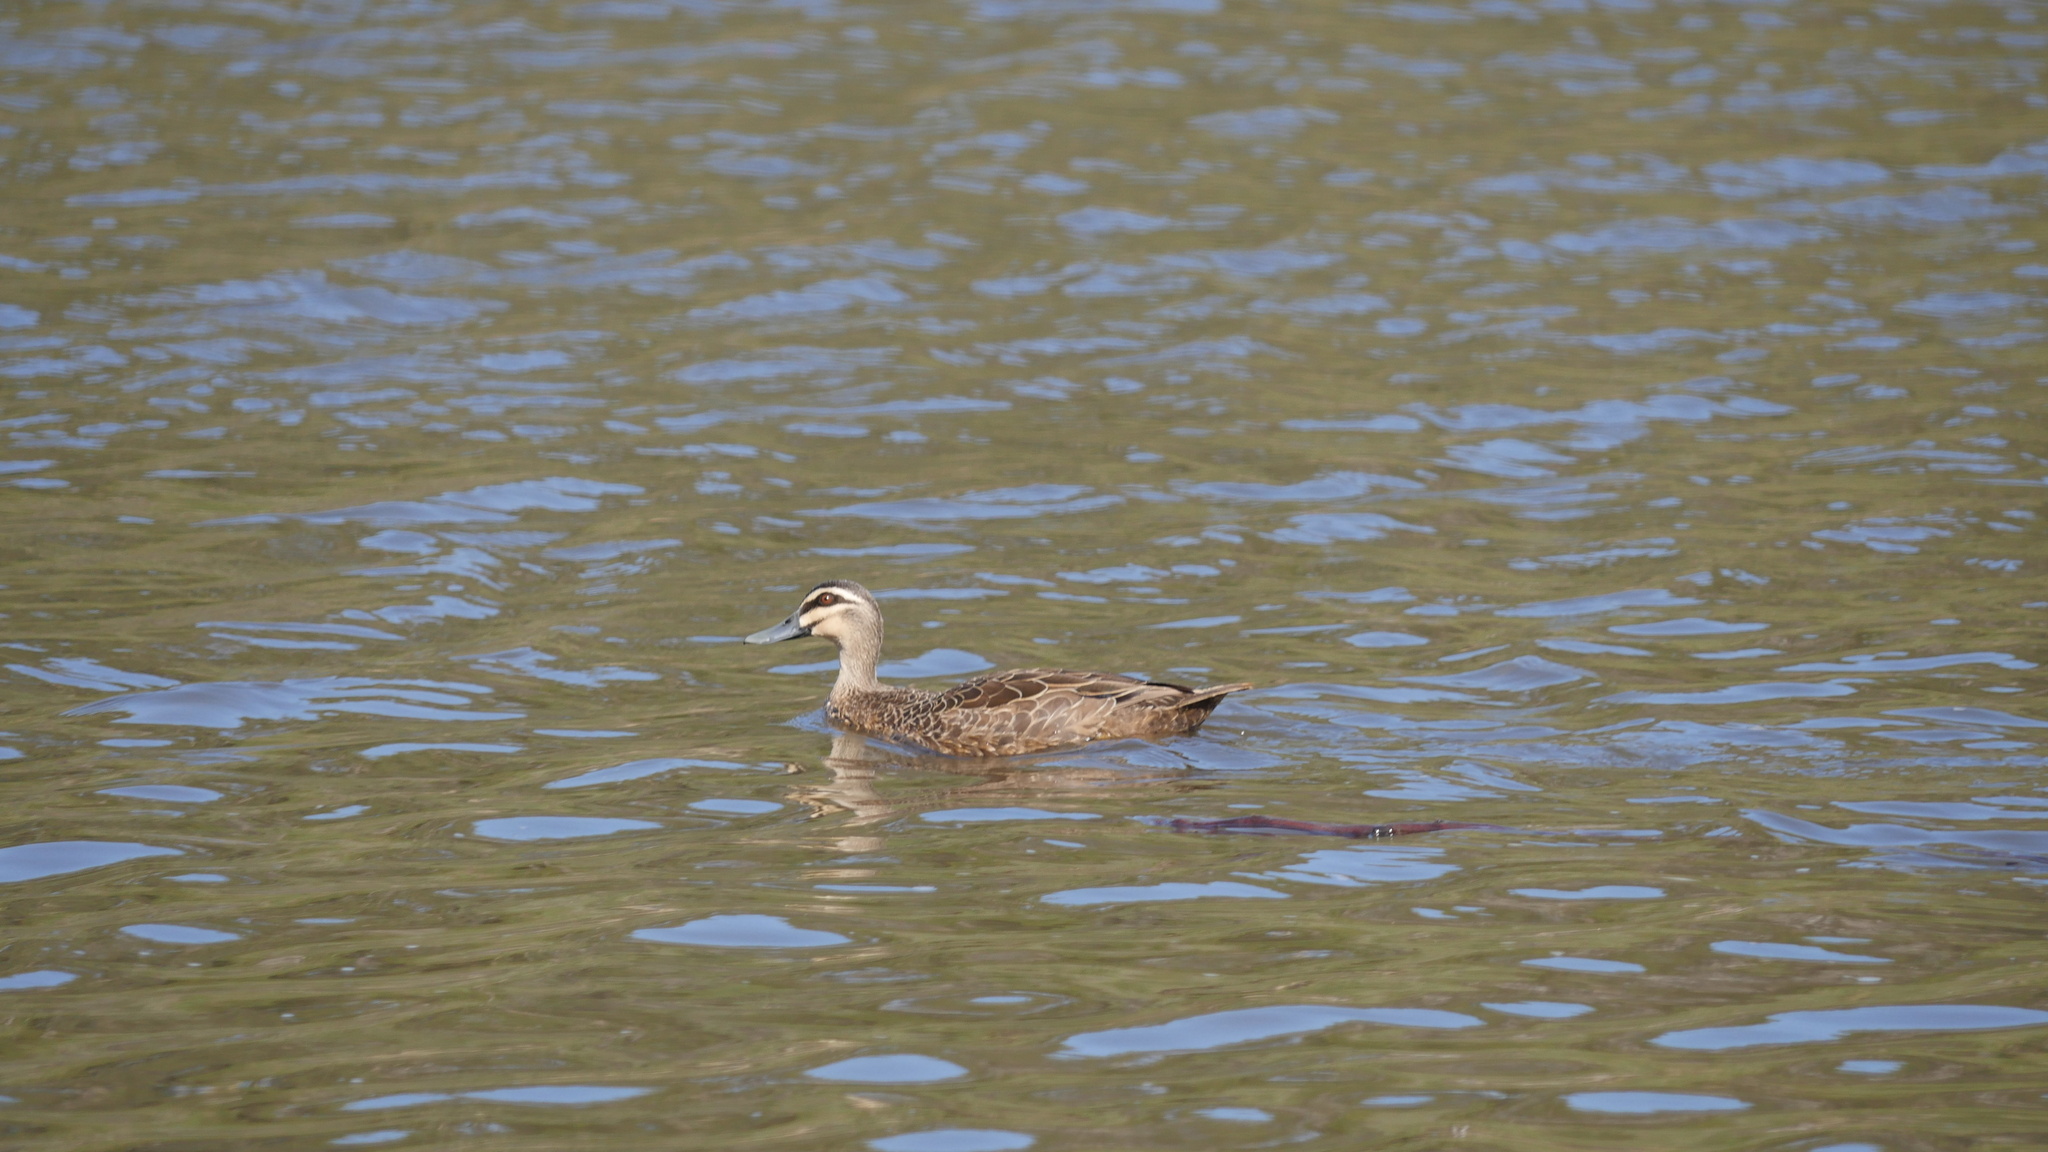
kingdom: Animalia
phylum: Chordata
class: Aves
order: Anseriformes
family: Anatidae
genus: Anas
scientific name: Anas superciliosa
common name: Pacific black duck
